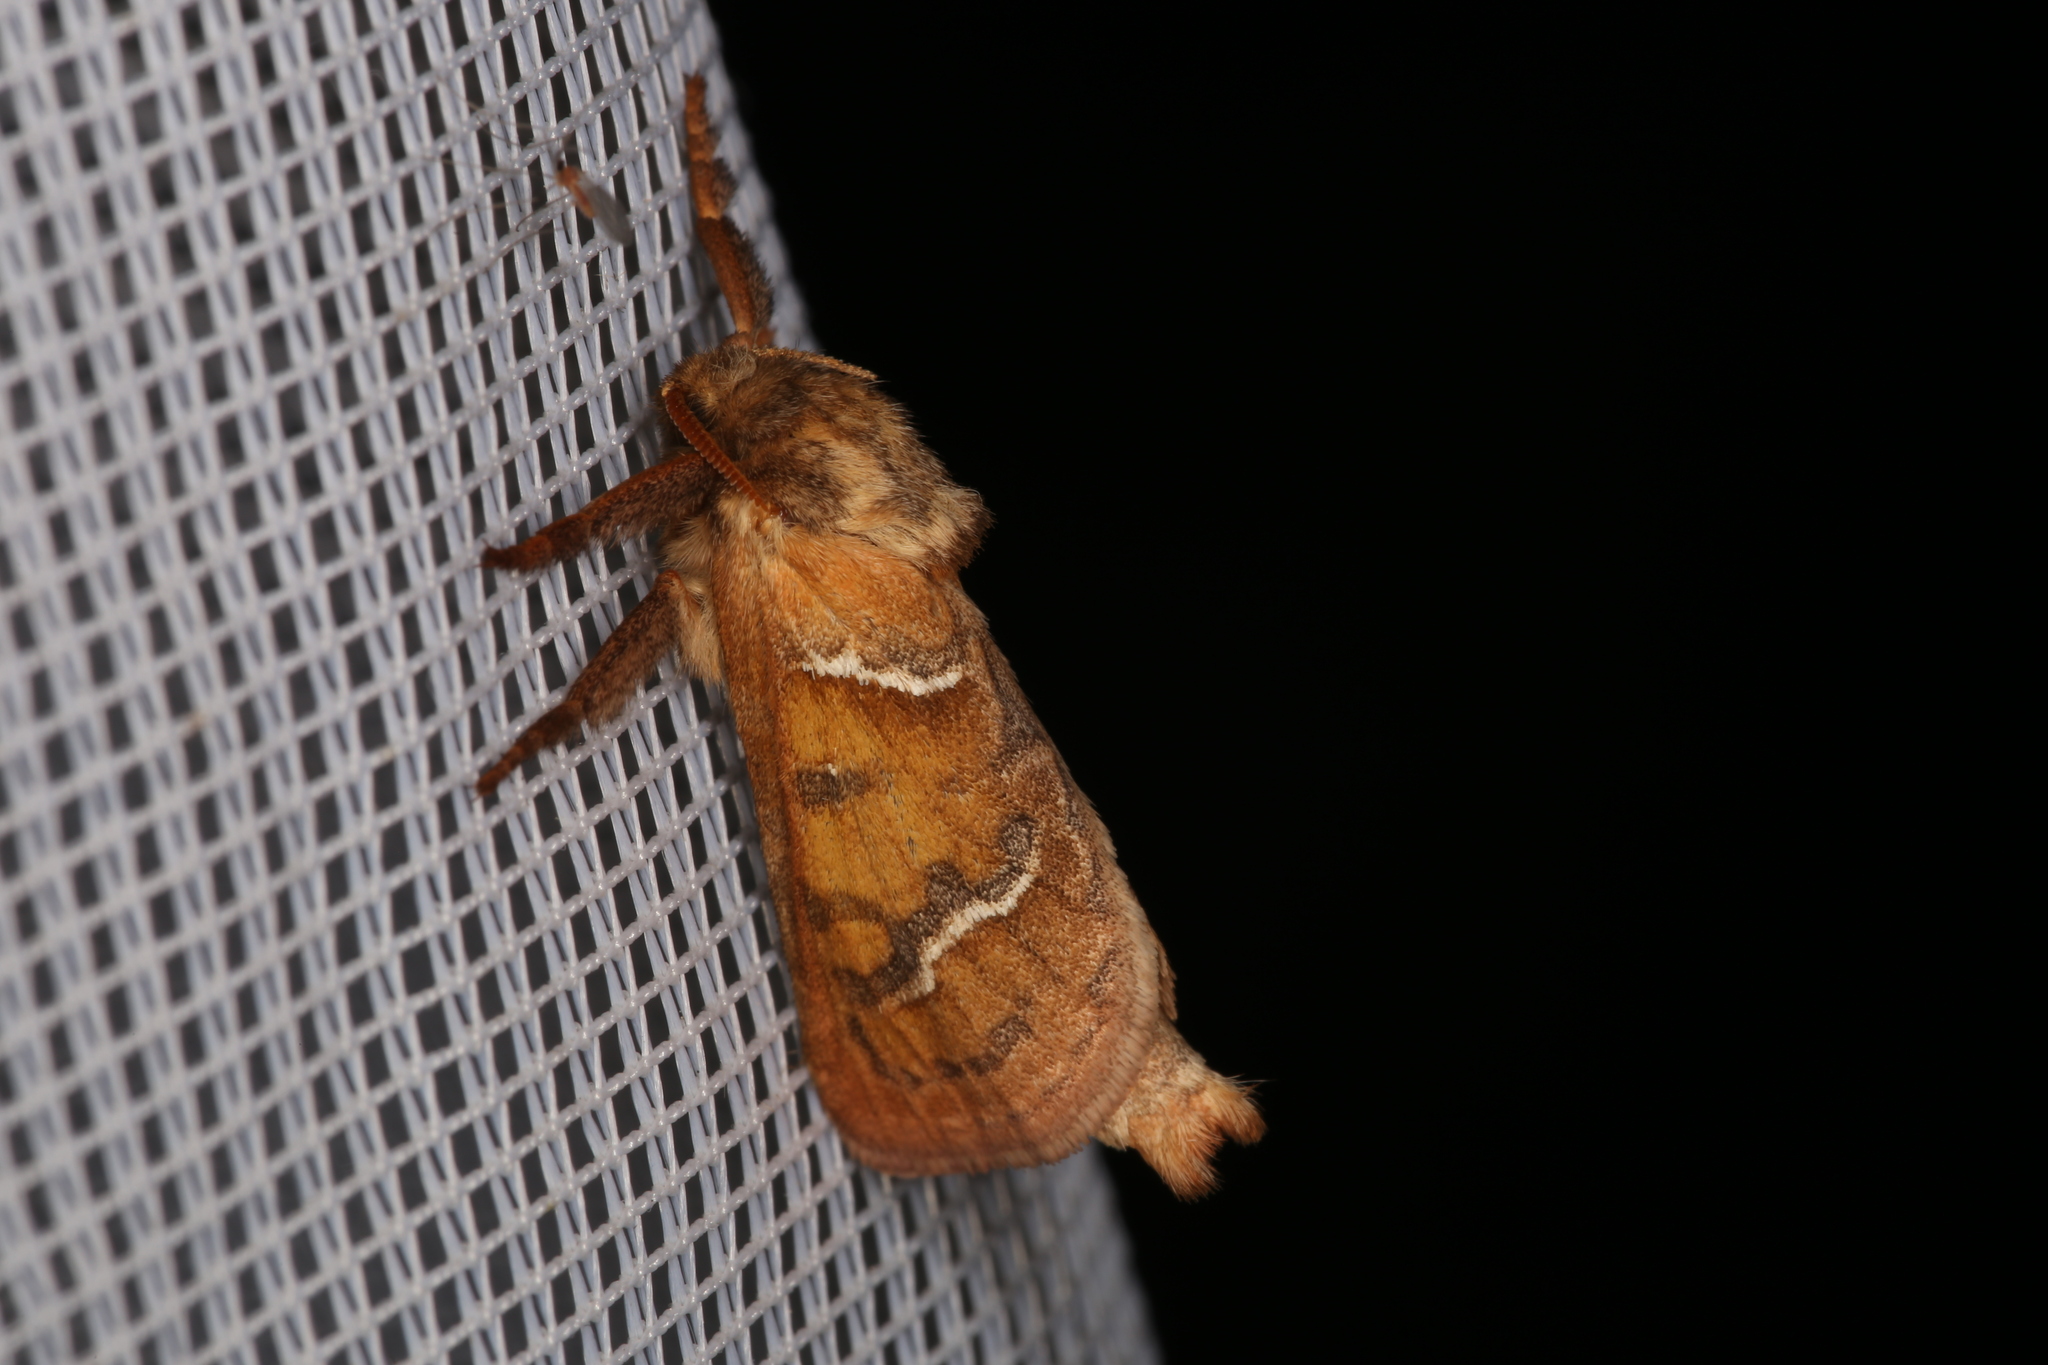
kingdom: Animalia
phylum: Arthropoda
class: Insecta
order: Lepidoptera
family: Hepialidae
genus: Triodia
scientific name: Triodia sylvina
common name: Orange swift
